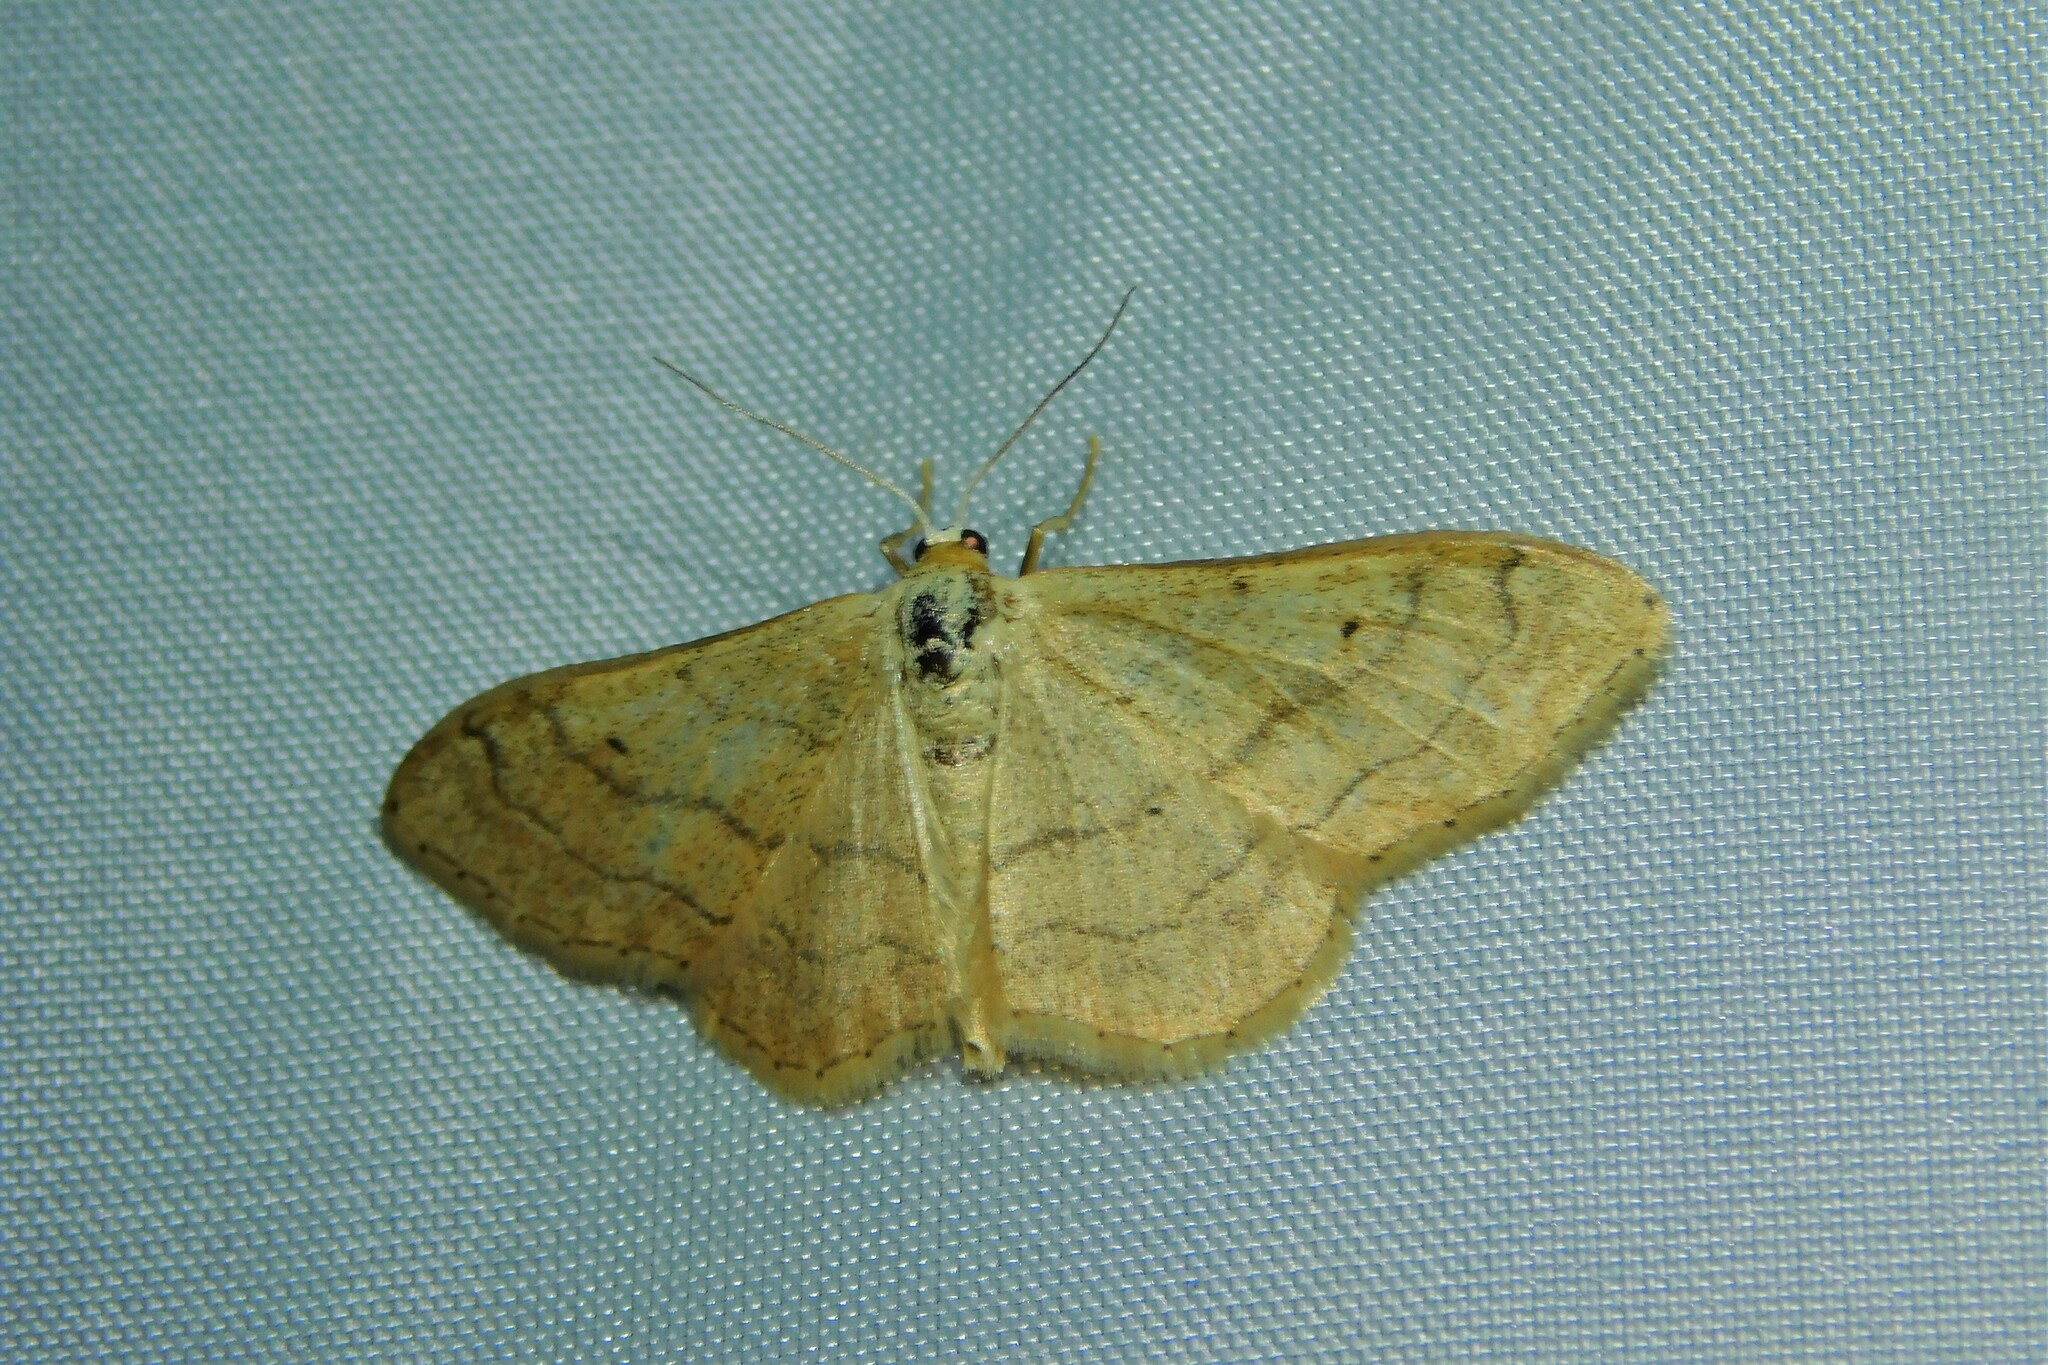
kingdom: Animalia
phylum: Arthropoda
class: Insecta
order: Lepidoptera
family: Geometridae
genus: Idaea
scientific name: Idaea aversata
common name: Riband wave
